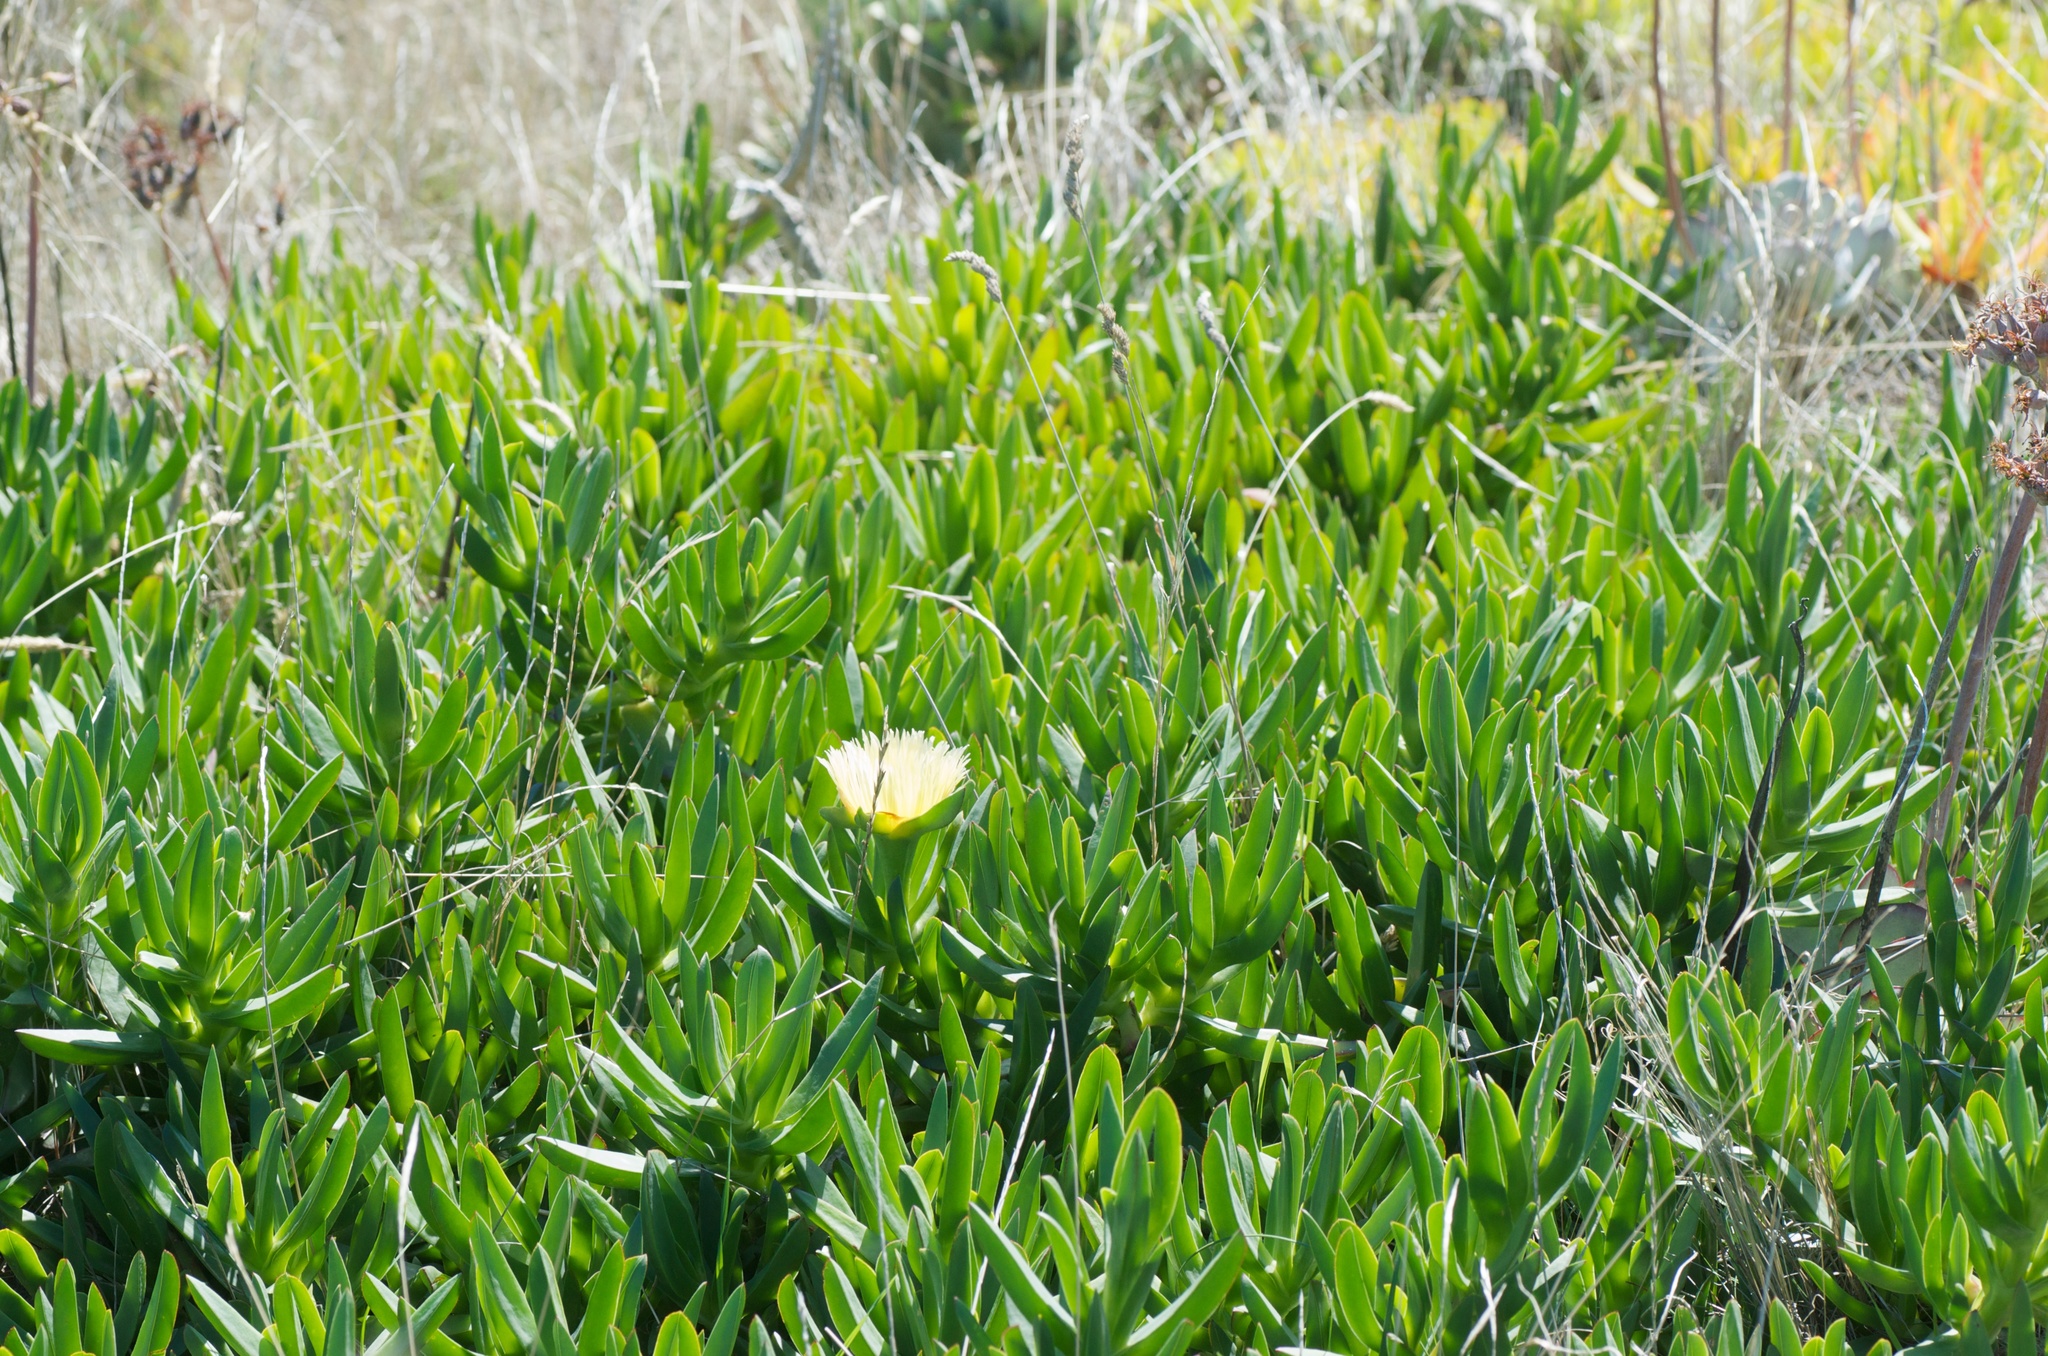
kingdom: Plantae
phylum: Tracheophyta
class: Magnoliopsida
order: Caryophyllales
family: Aizoaceae
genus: Carpobrotus
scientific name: Carpobrotus edulis
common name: Hottentot-fig
